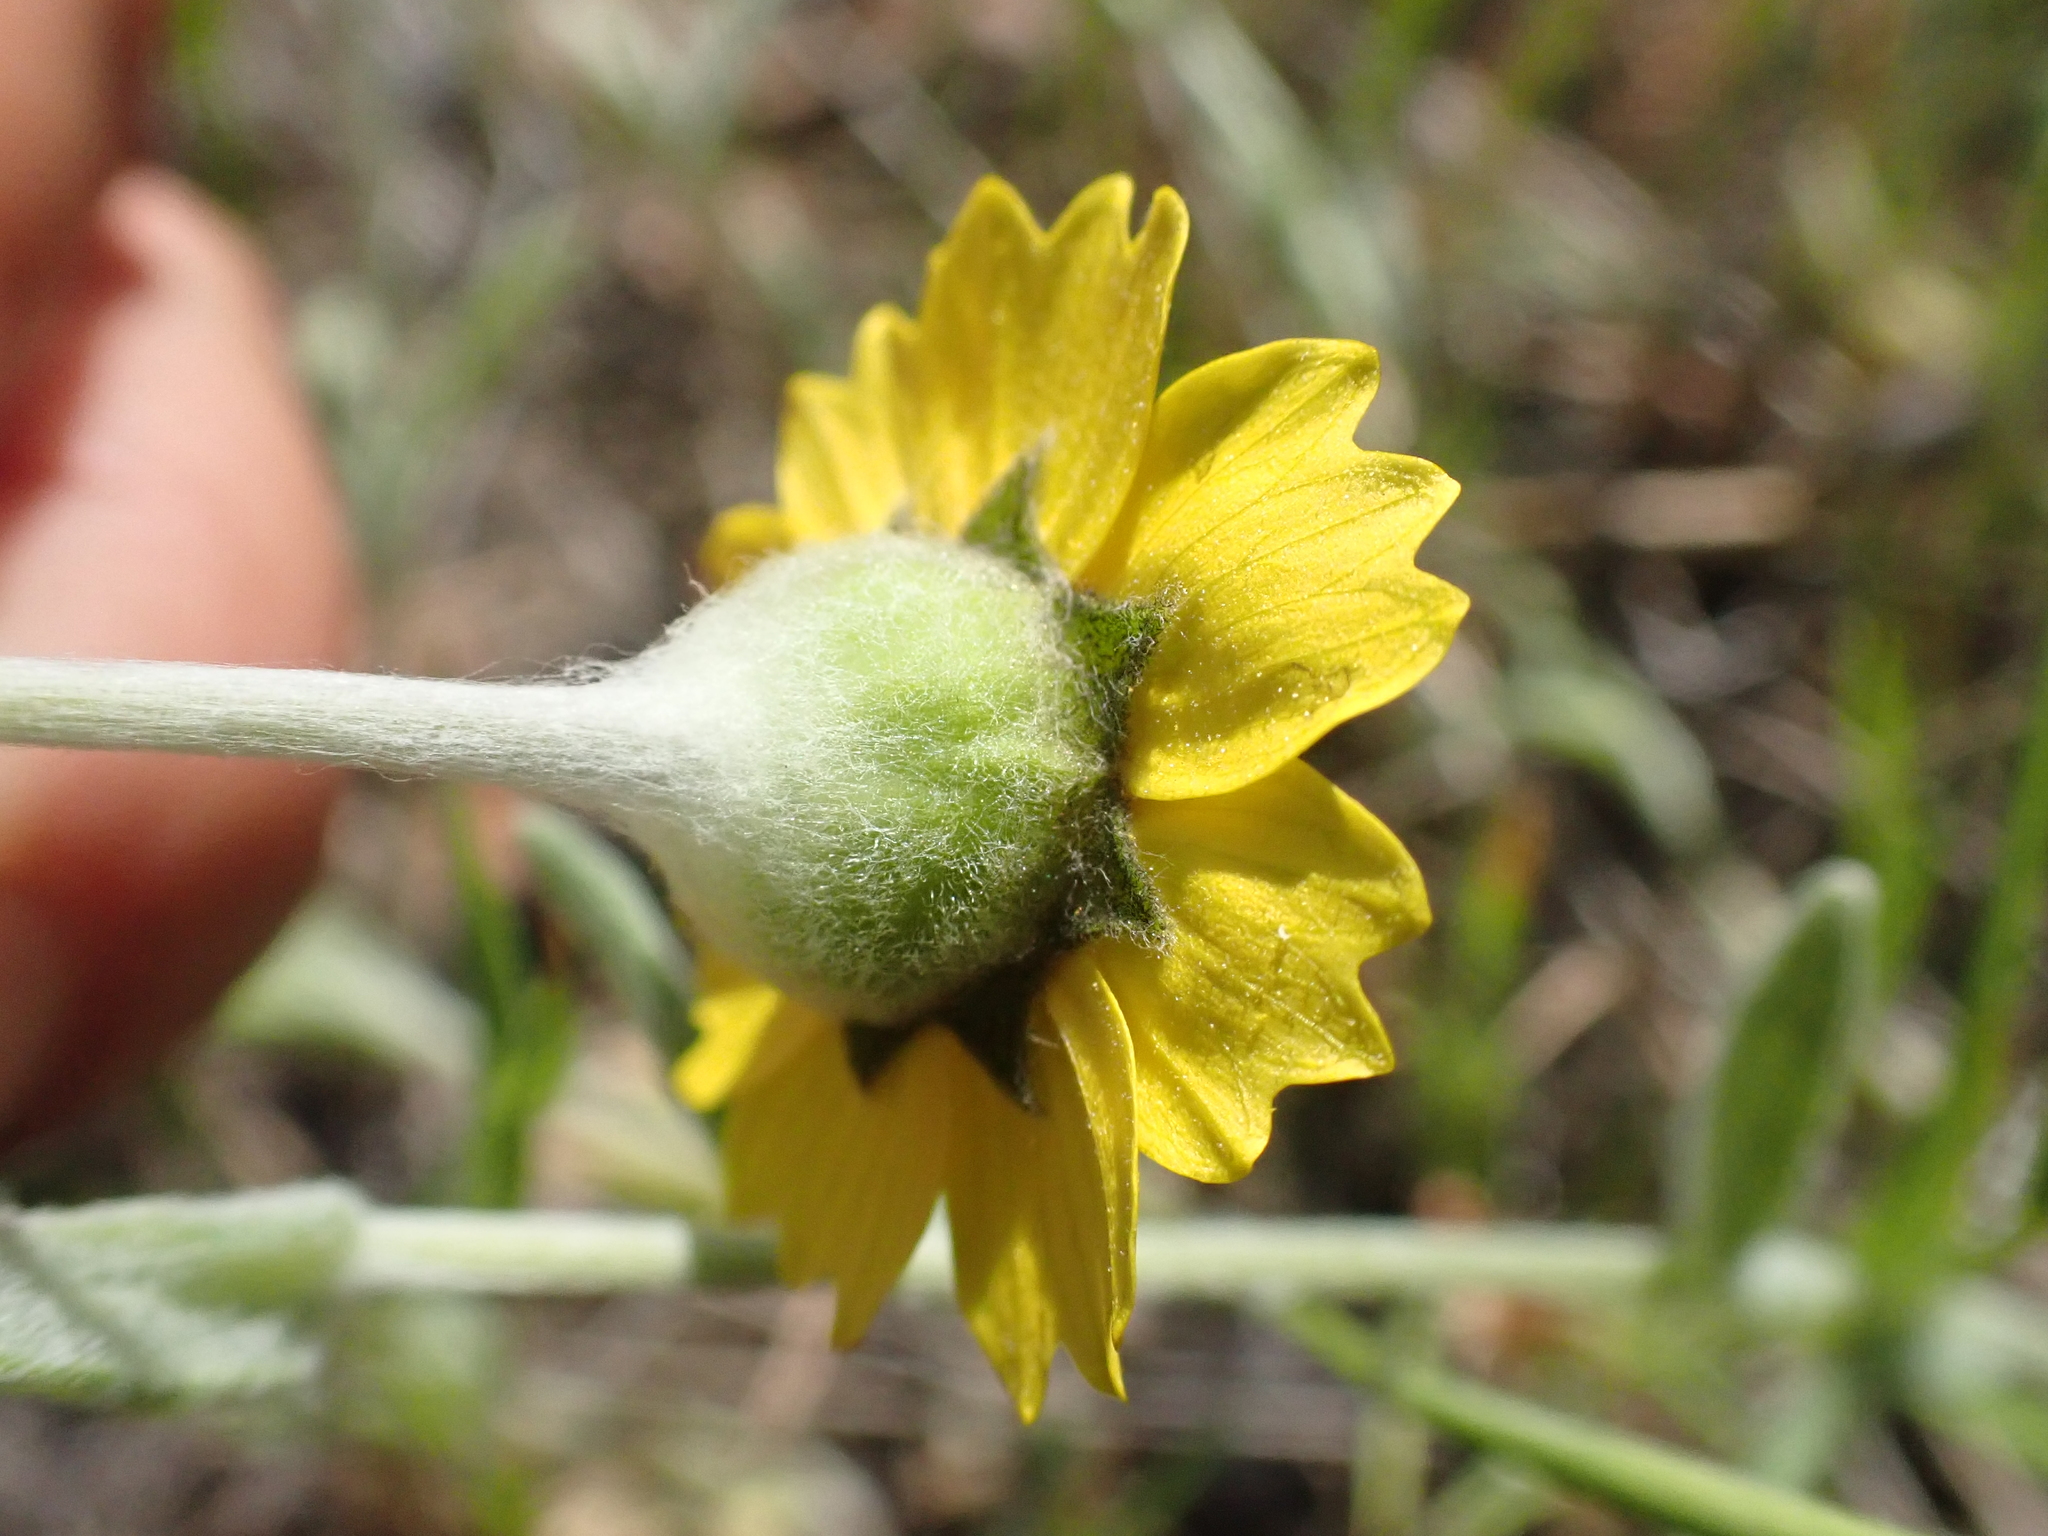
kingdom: Plantae
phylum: Tracheophyta
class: Magnoliopsida
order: Asterales
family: Asteraceae
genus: Monolopia
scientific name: Monolopia major
